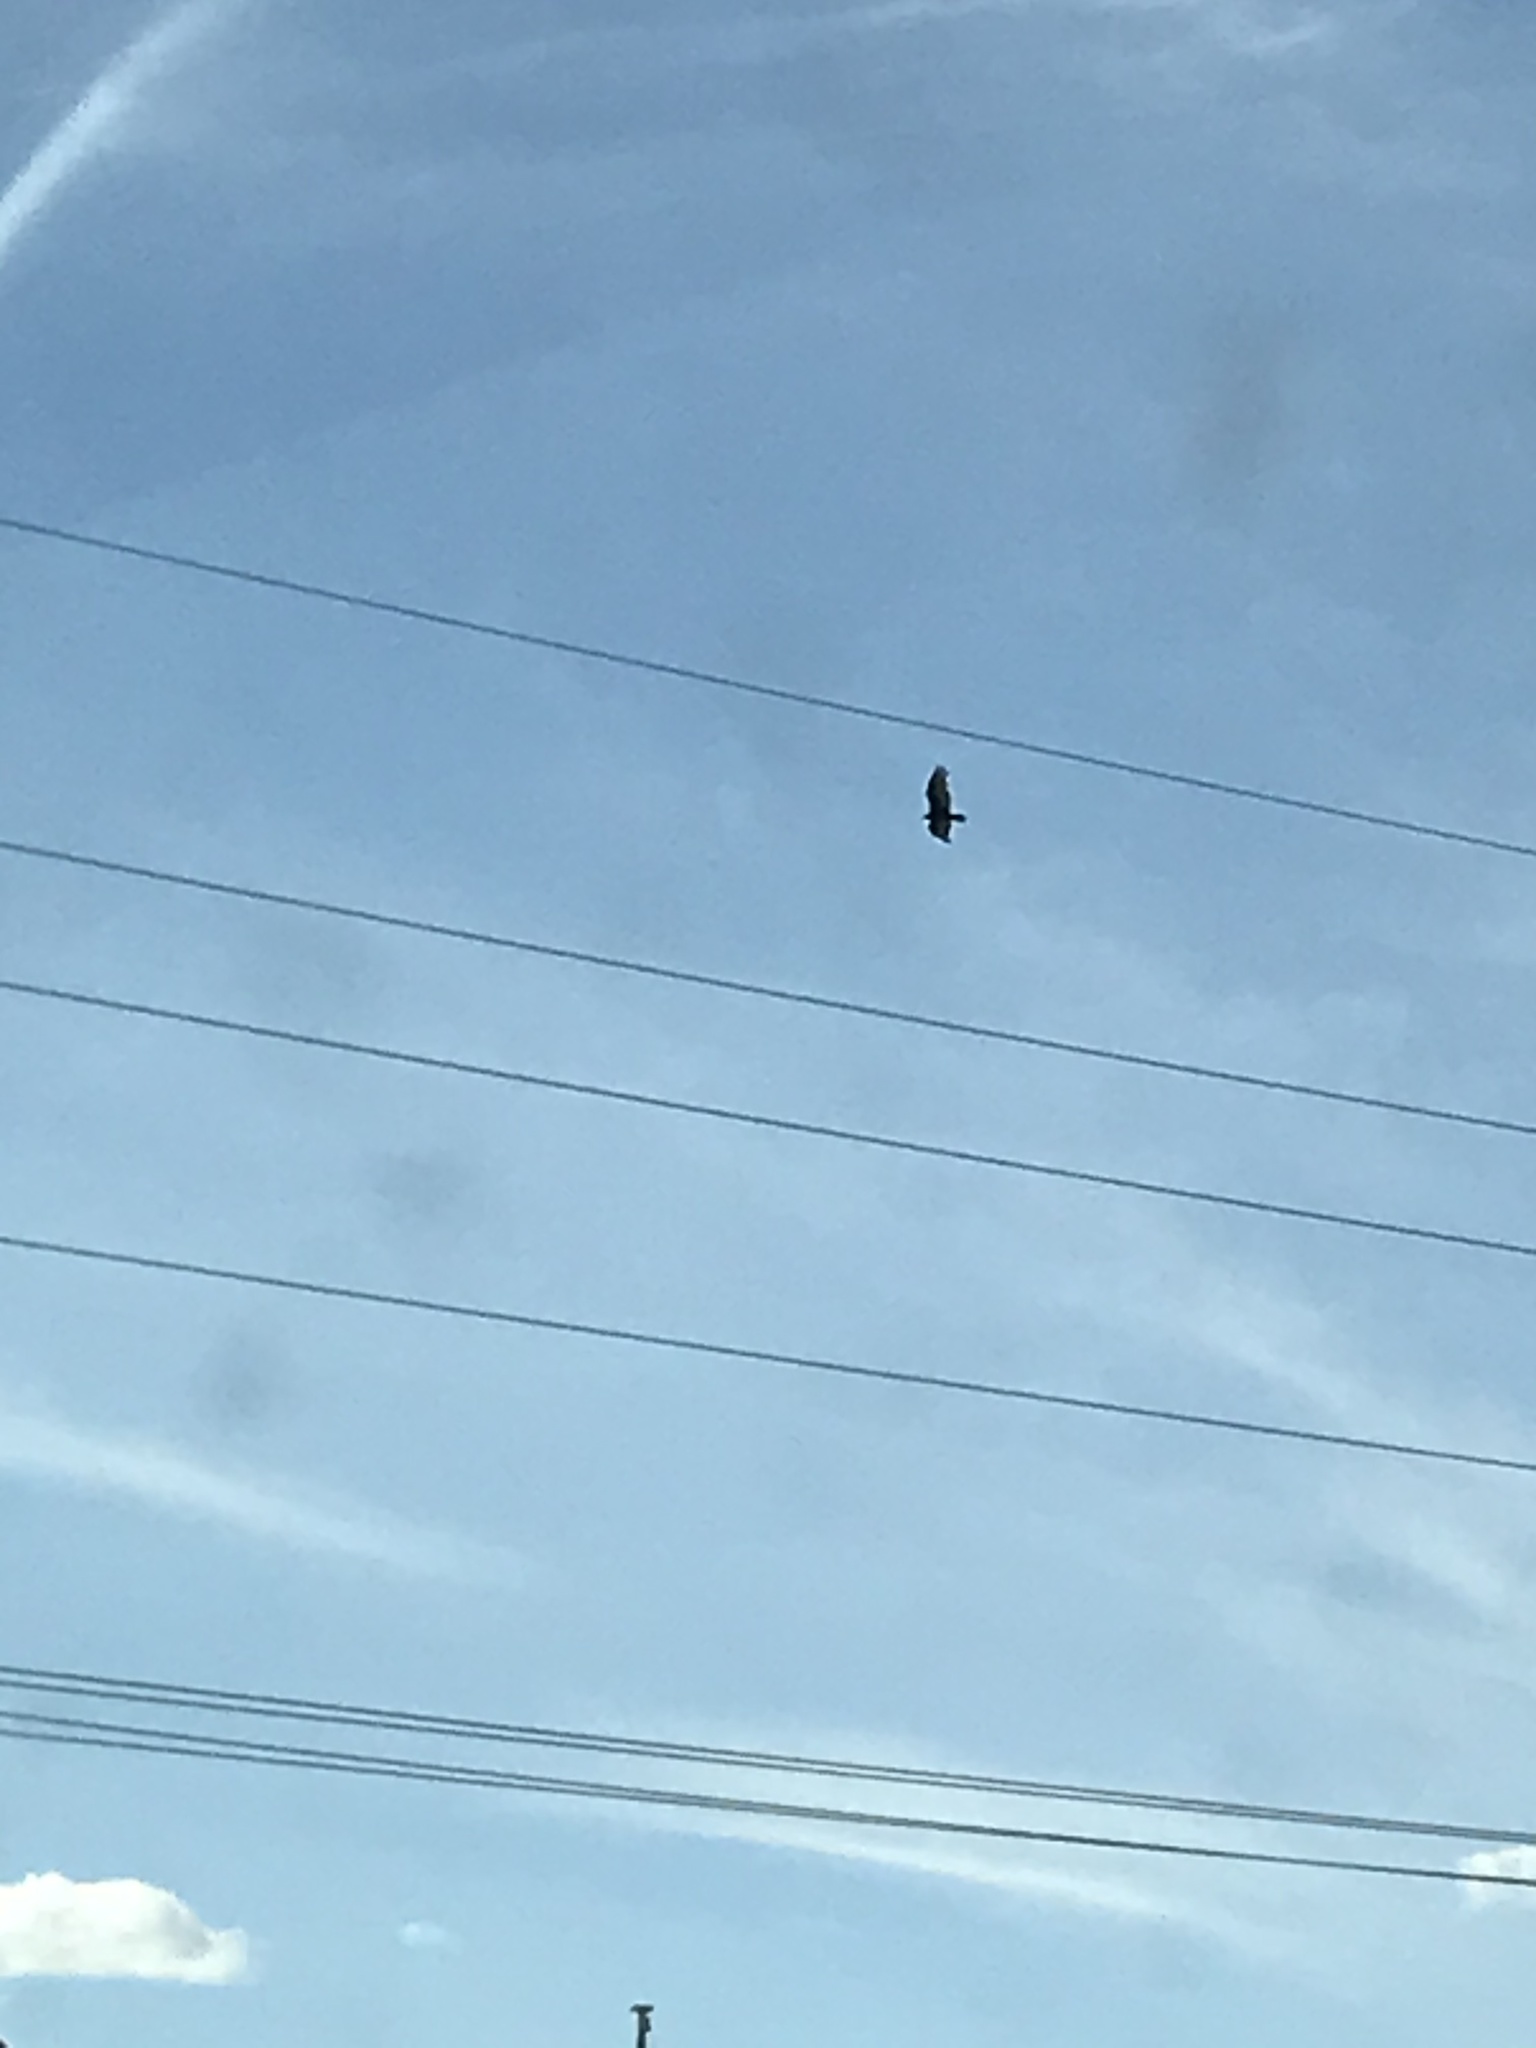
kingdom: Animalia
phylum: Chordata
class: Aves
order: Accipitriformes
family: Cathartidae
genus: Cathartes
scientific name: Cathartes aura
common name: Turkey vulture
